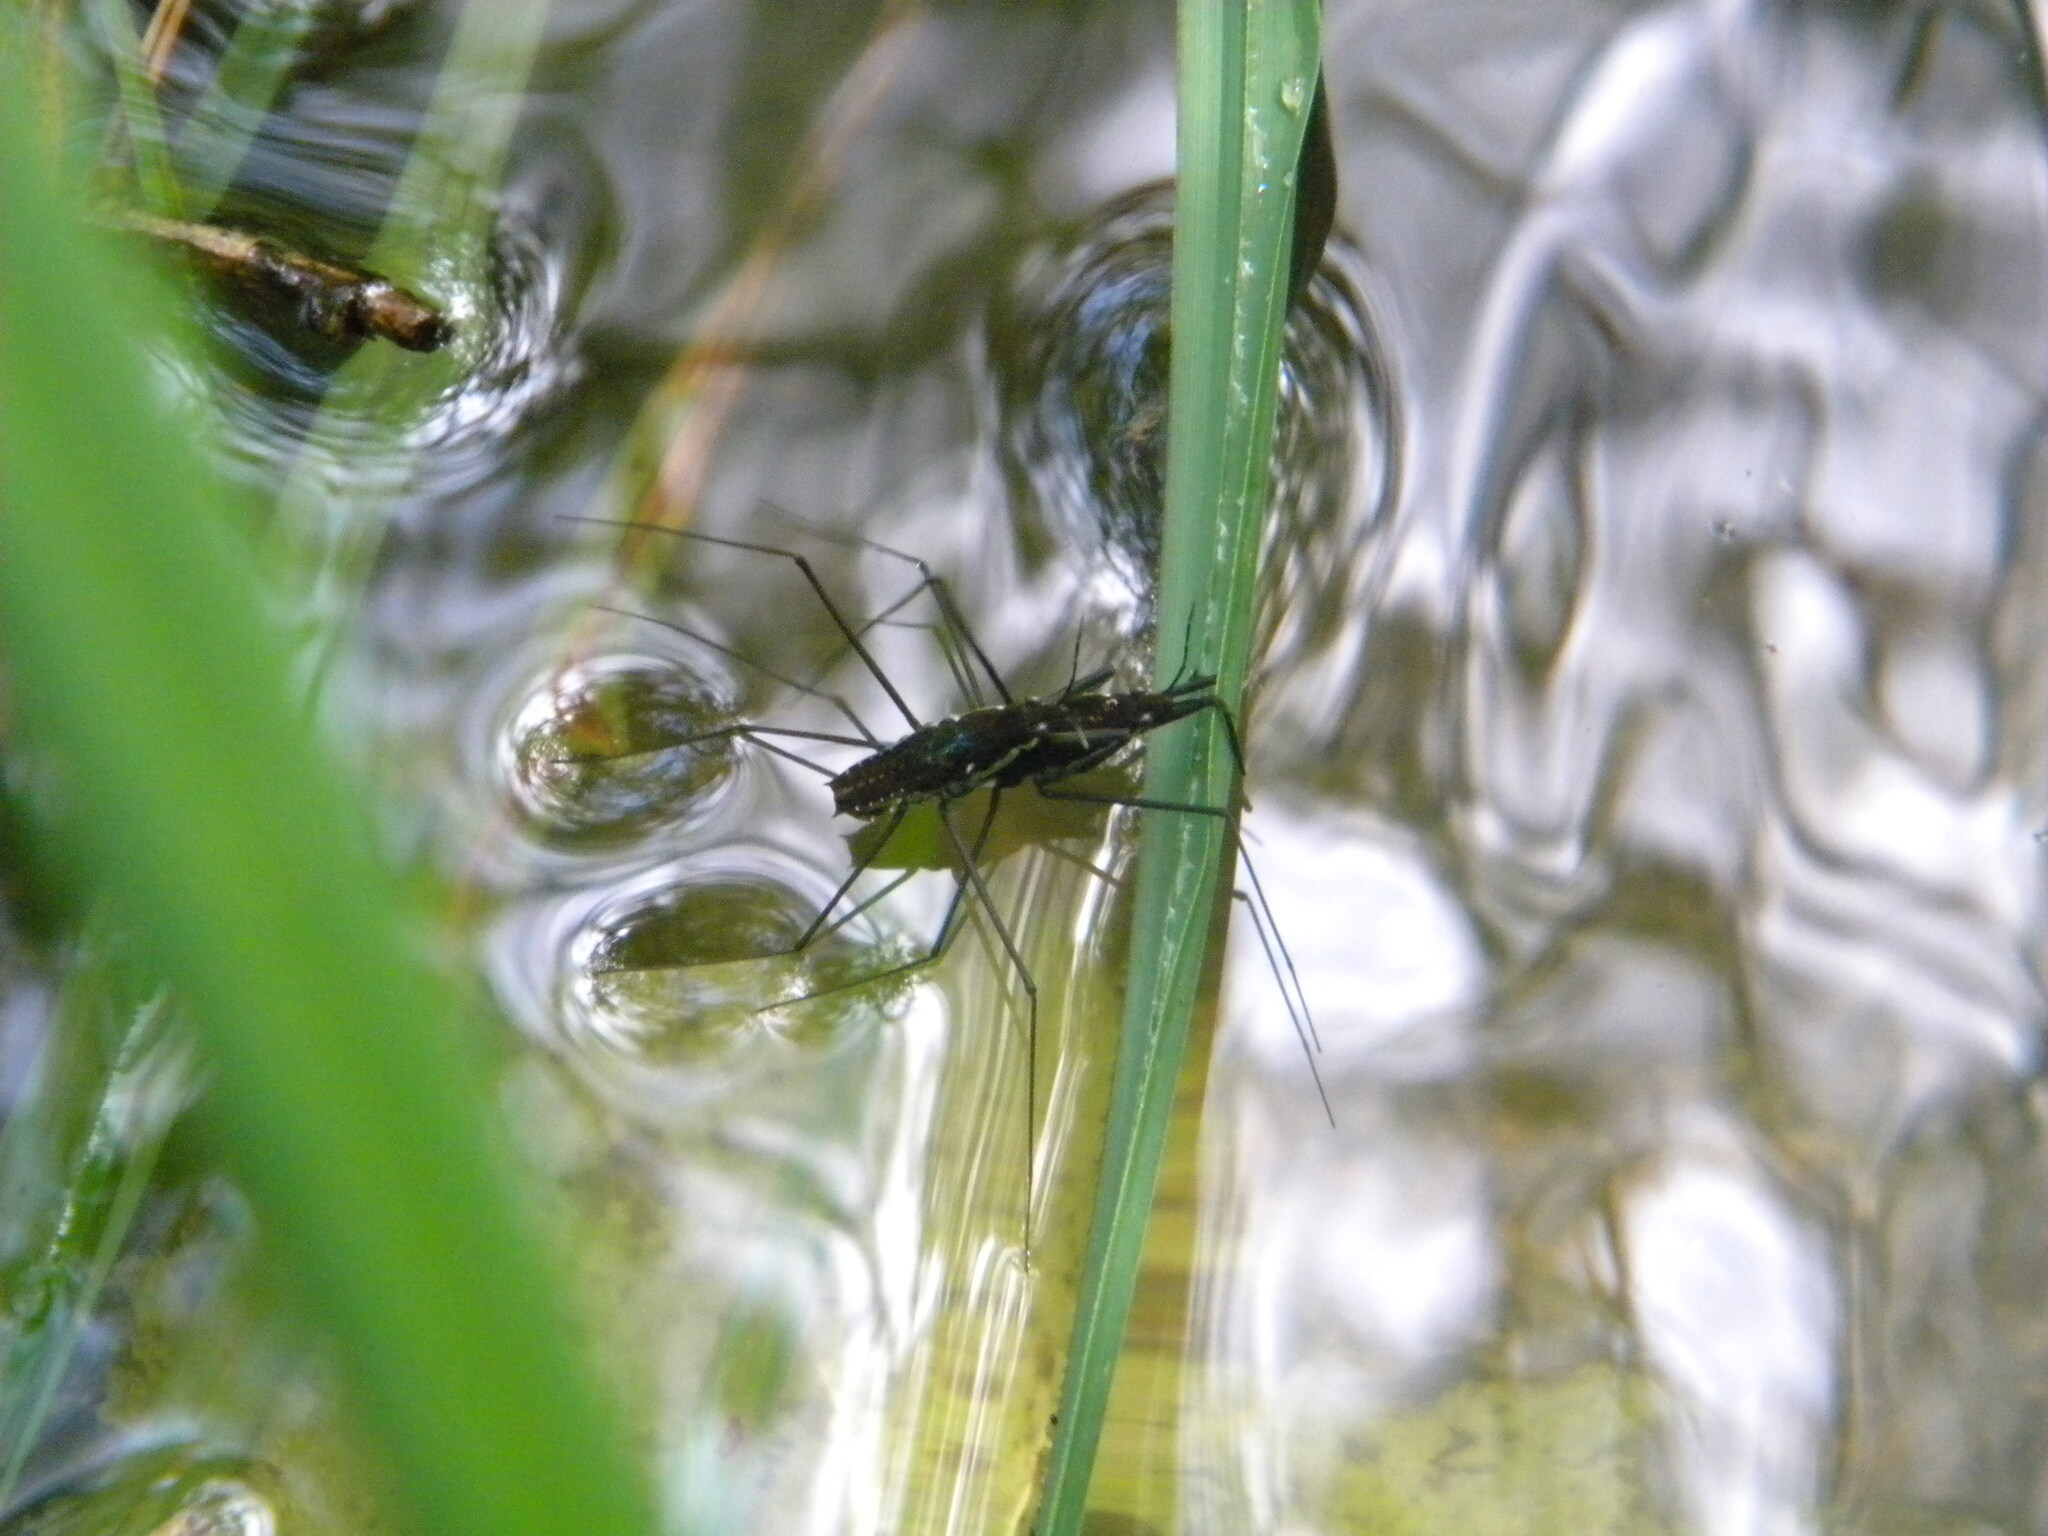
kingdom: Animalia
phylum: Arthropoda
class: Insecta
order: Hemiptera
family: Gerridae
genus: Aquarius
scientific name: Aquarius remigis
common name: Common water strider
